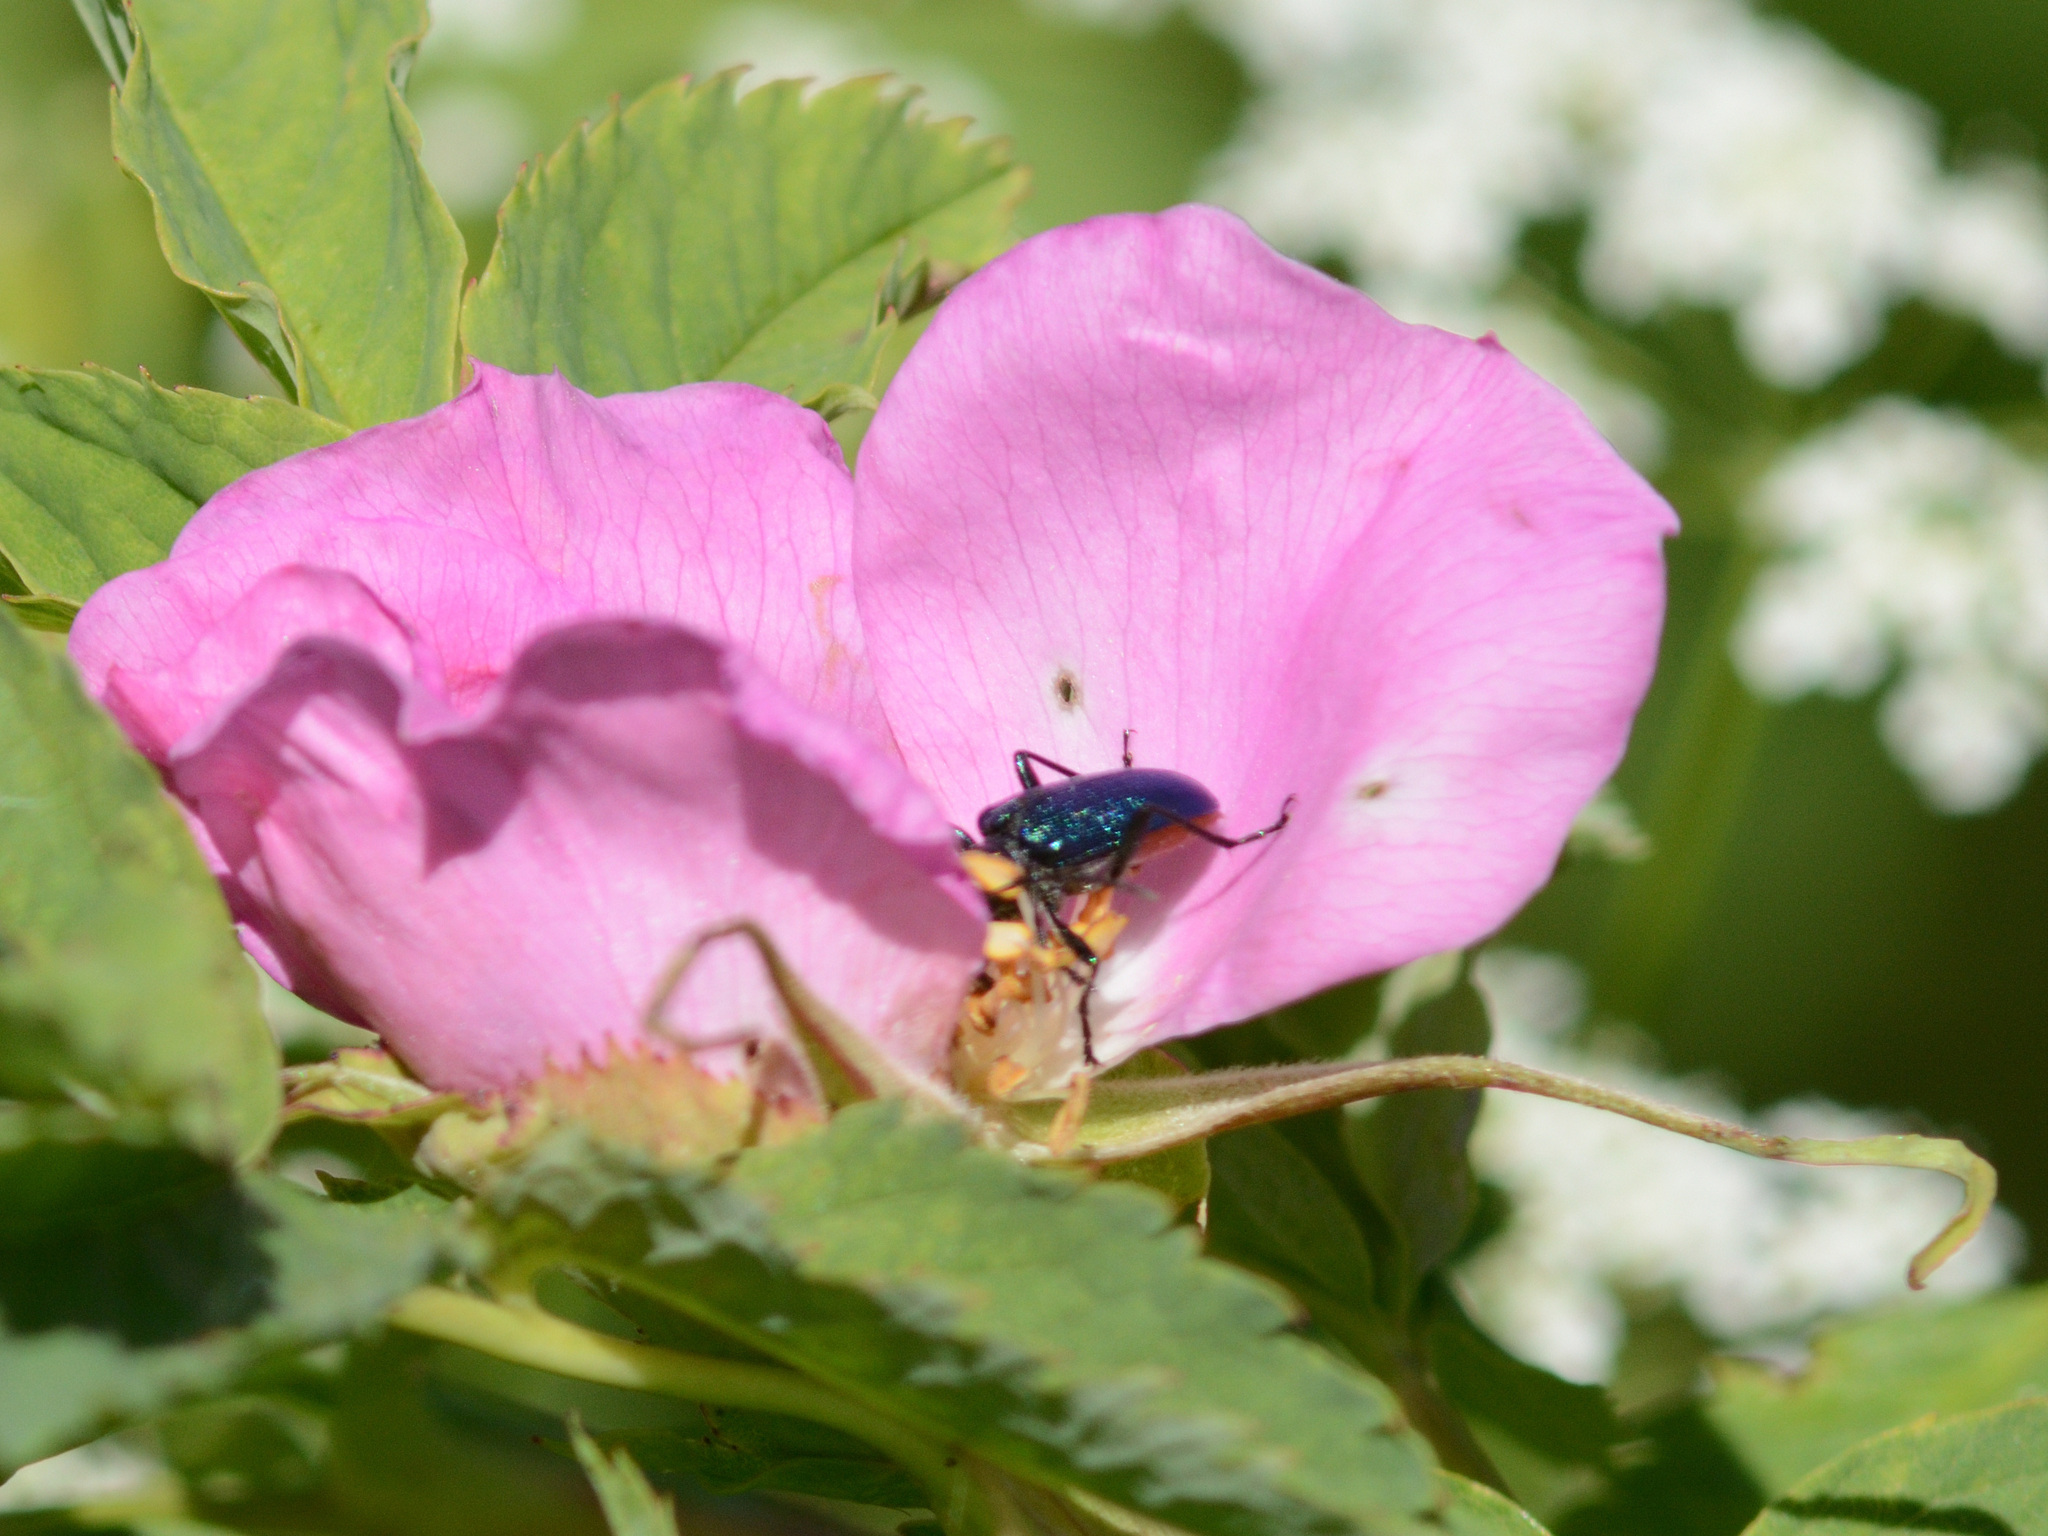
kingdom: Animalia
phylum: Arthropoda
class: Insecta
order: Coleoptera
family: Cerambycidae
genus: Gaurotes
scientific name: Gaurotes virginea
